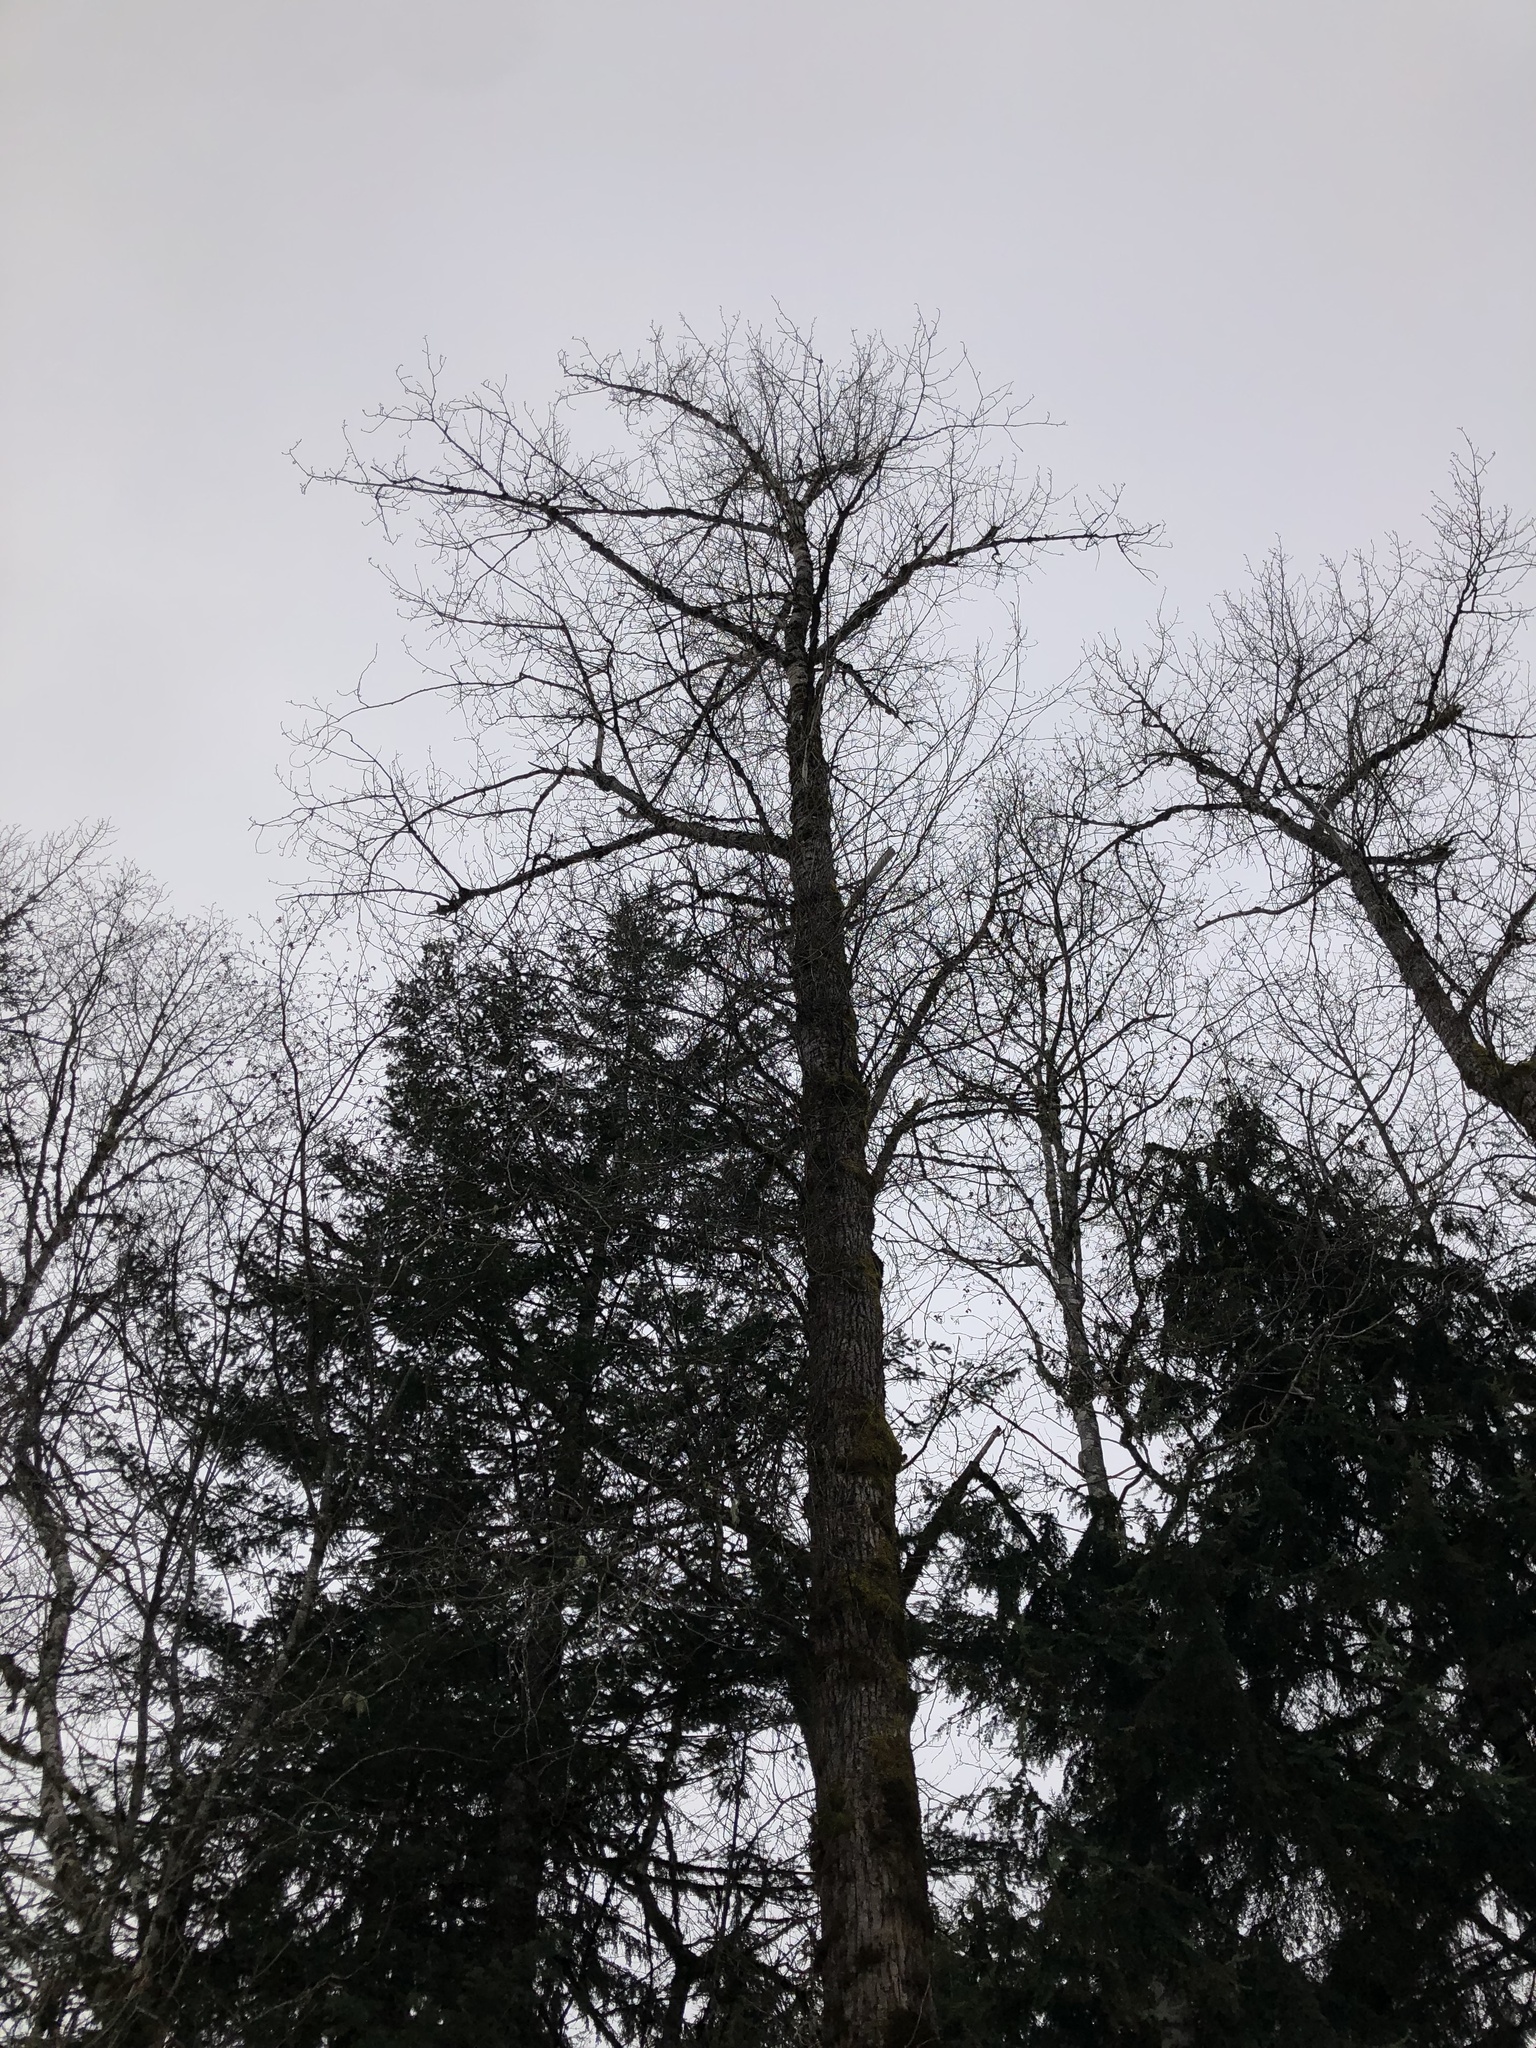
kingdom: Plantae
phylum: Tracheophyta
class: Magnoliopsida
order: Malpighiales
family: Salicaceae
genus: Populus
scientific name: Populus trichocarpa
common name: Black cottonwood
